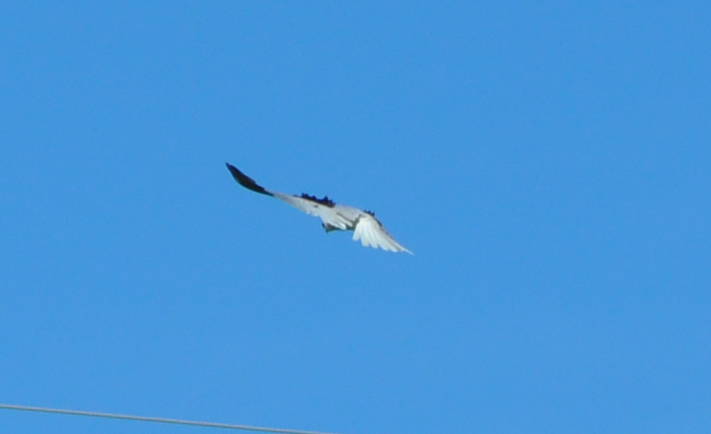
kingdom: Animalia
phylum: Chordata
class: Aves
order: Accipitriformes
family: Accipitridae
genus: Elanus
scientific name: Elanus leucurus
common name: White-tailed kite
